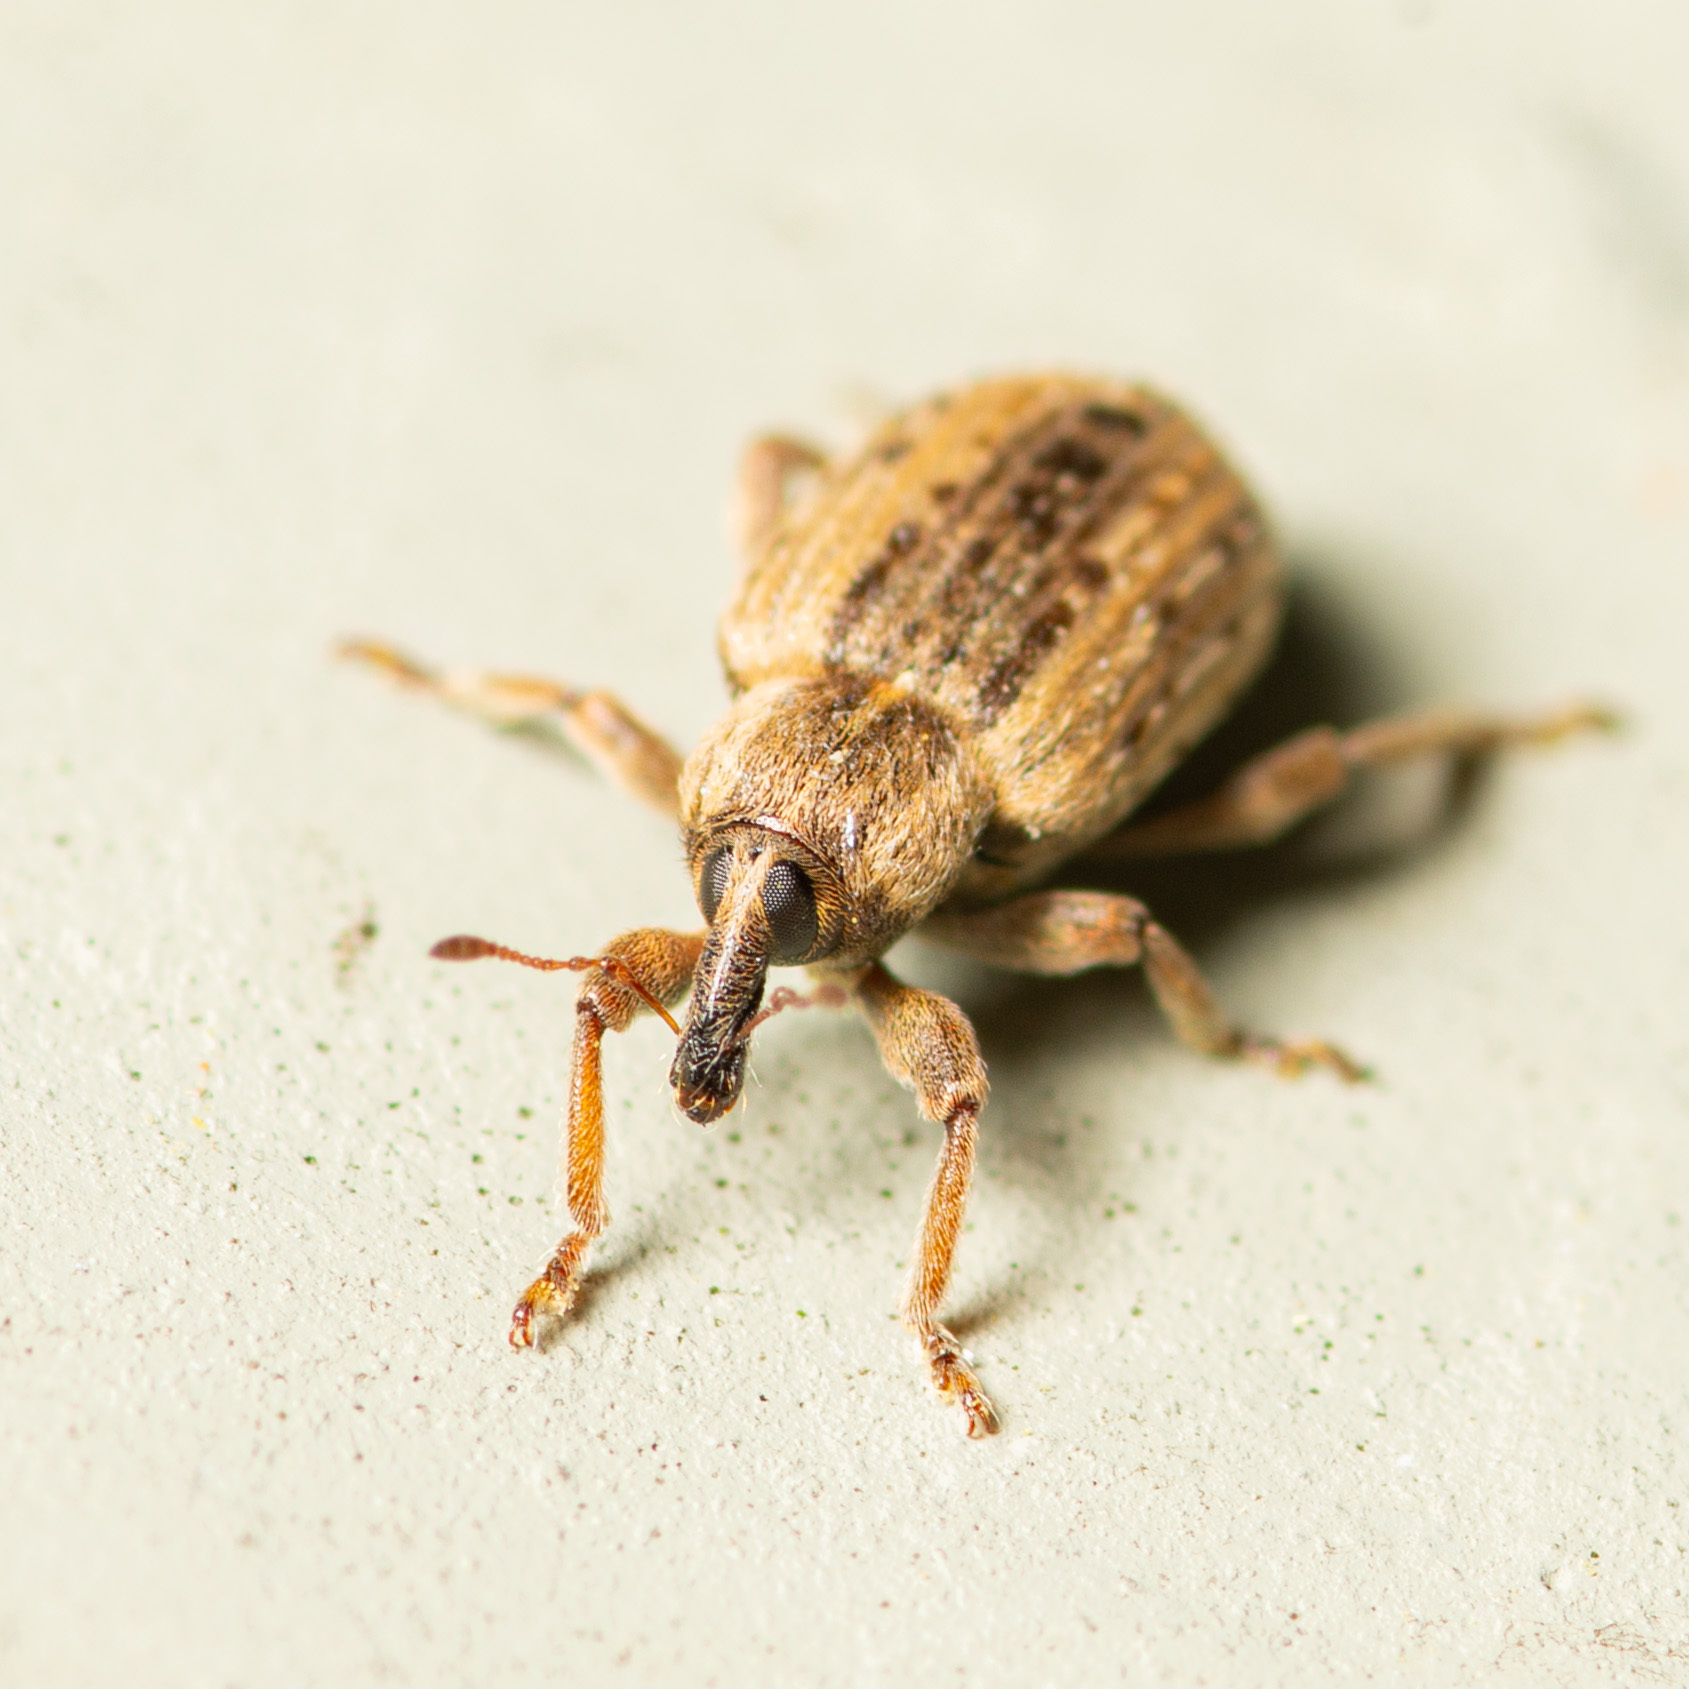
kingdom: Animalia
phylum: Arthropoda
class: Insecta
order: Coleoptera
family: Curculionidae
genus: Hypera
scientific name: Hypera postica
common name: Weevil
